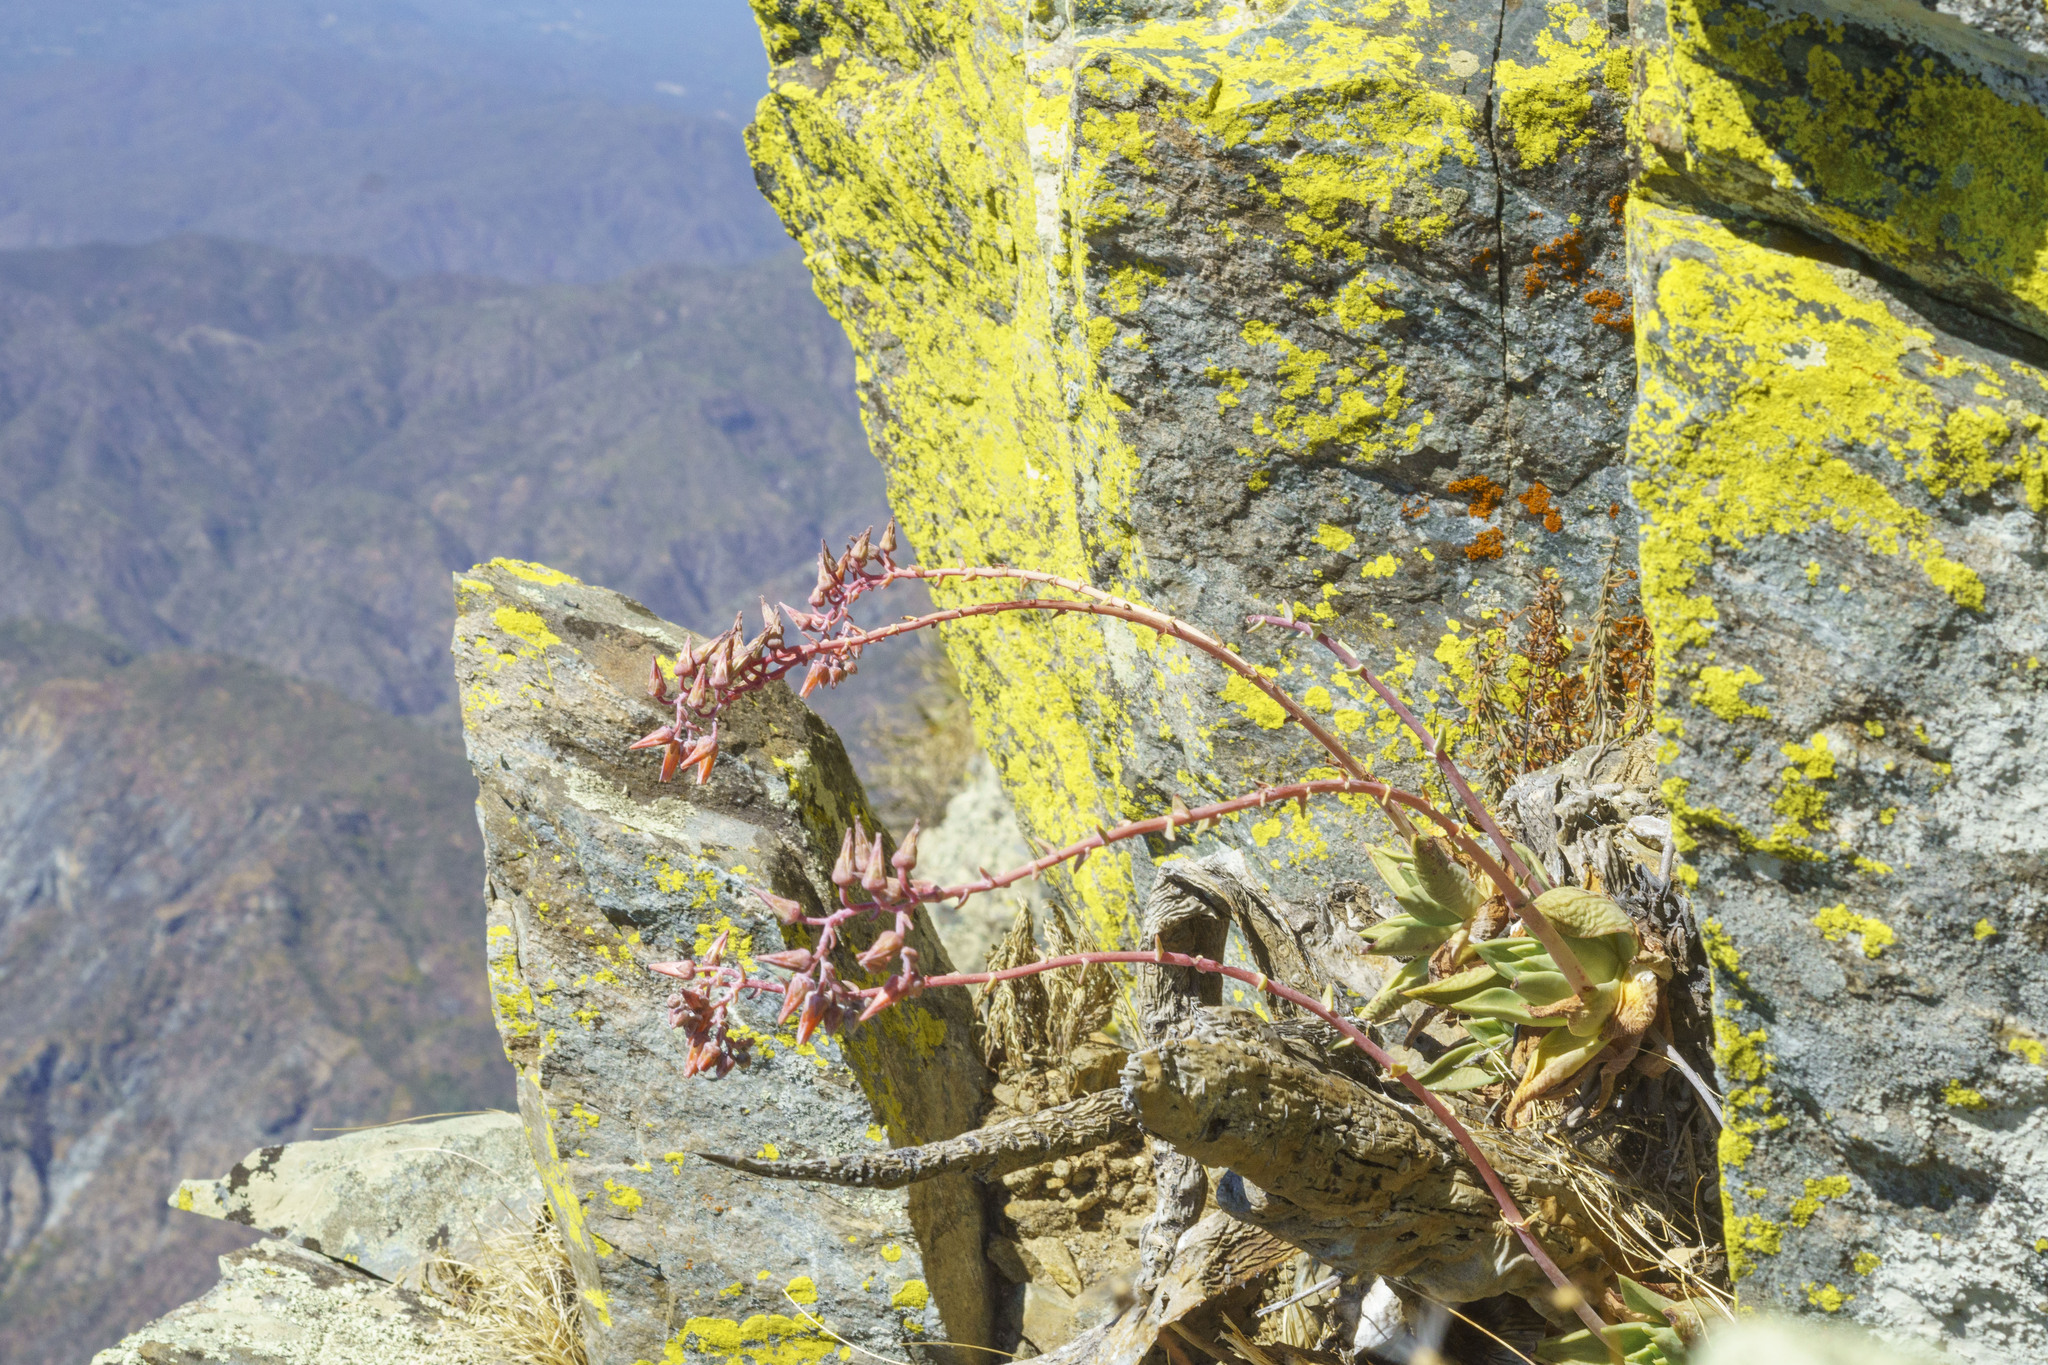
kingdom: Plantae
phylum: Tracheophyta
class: Magnoliopsida
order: Saxifragales
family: Crassulaceae
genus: Dudleya
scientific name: Dudleya rigida
